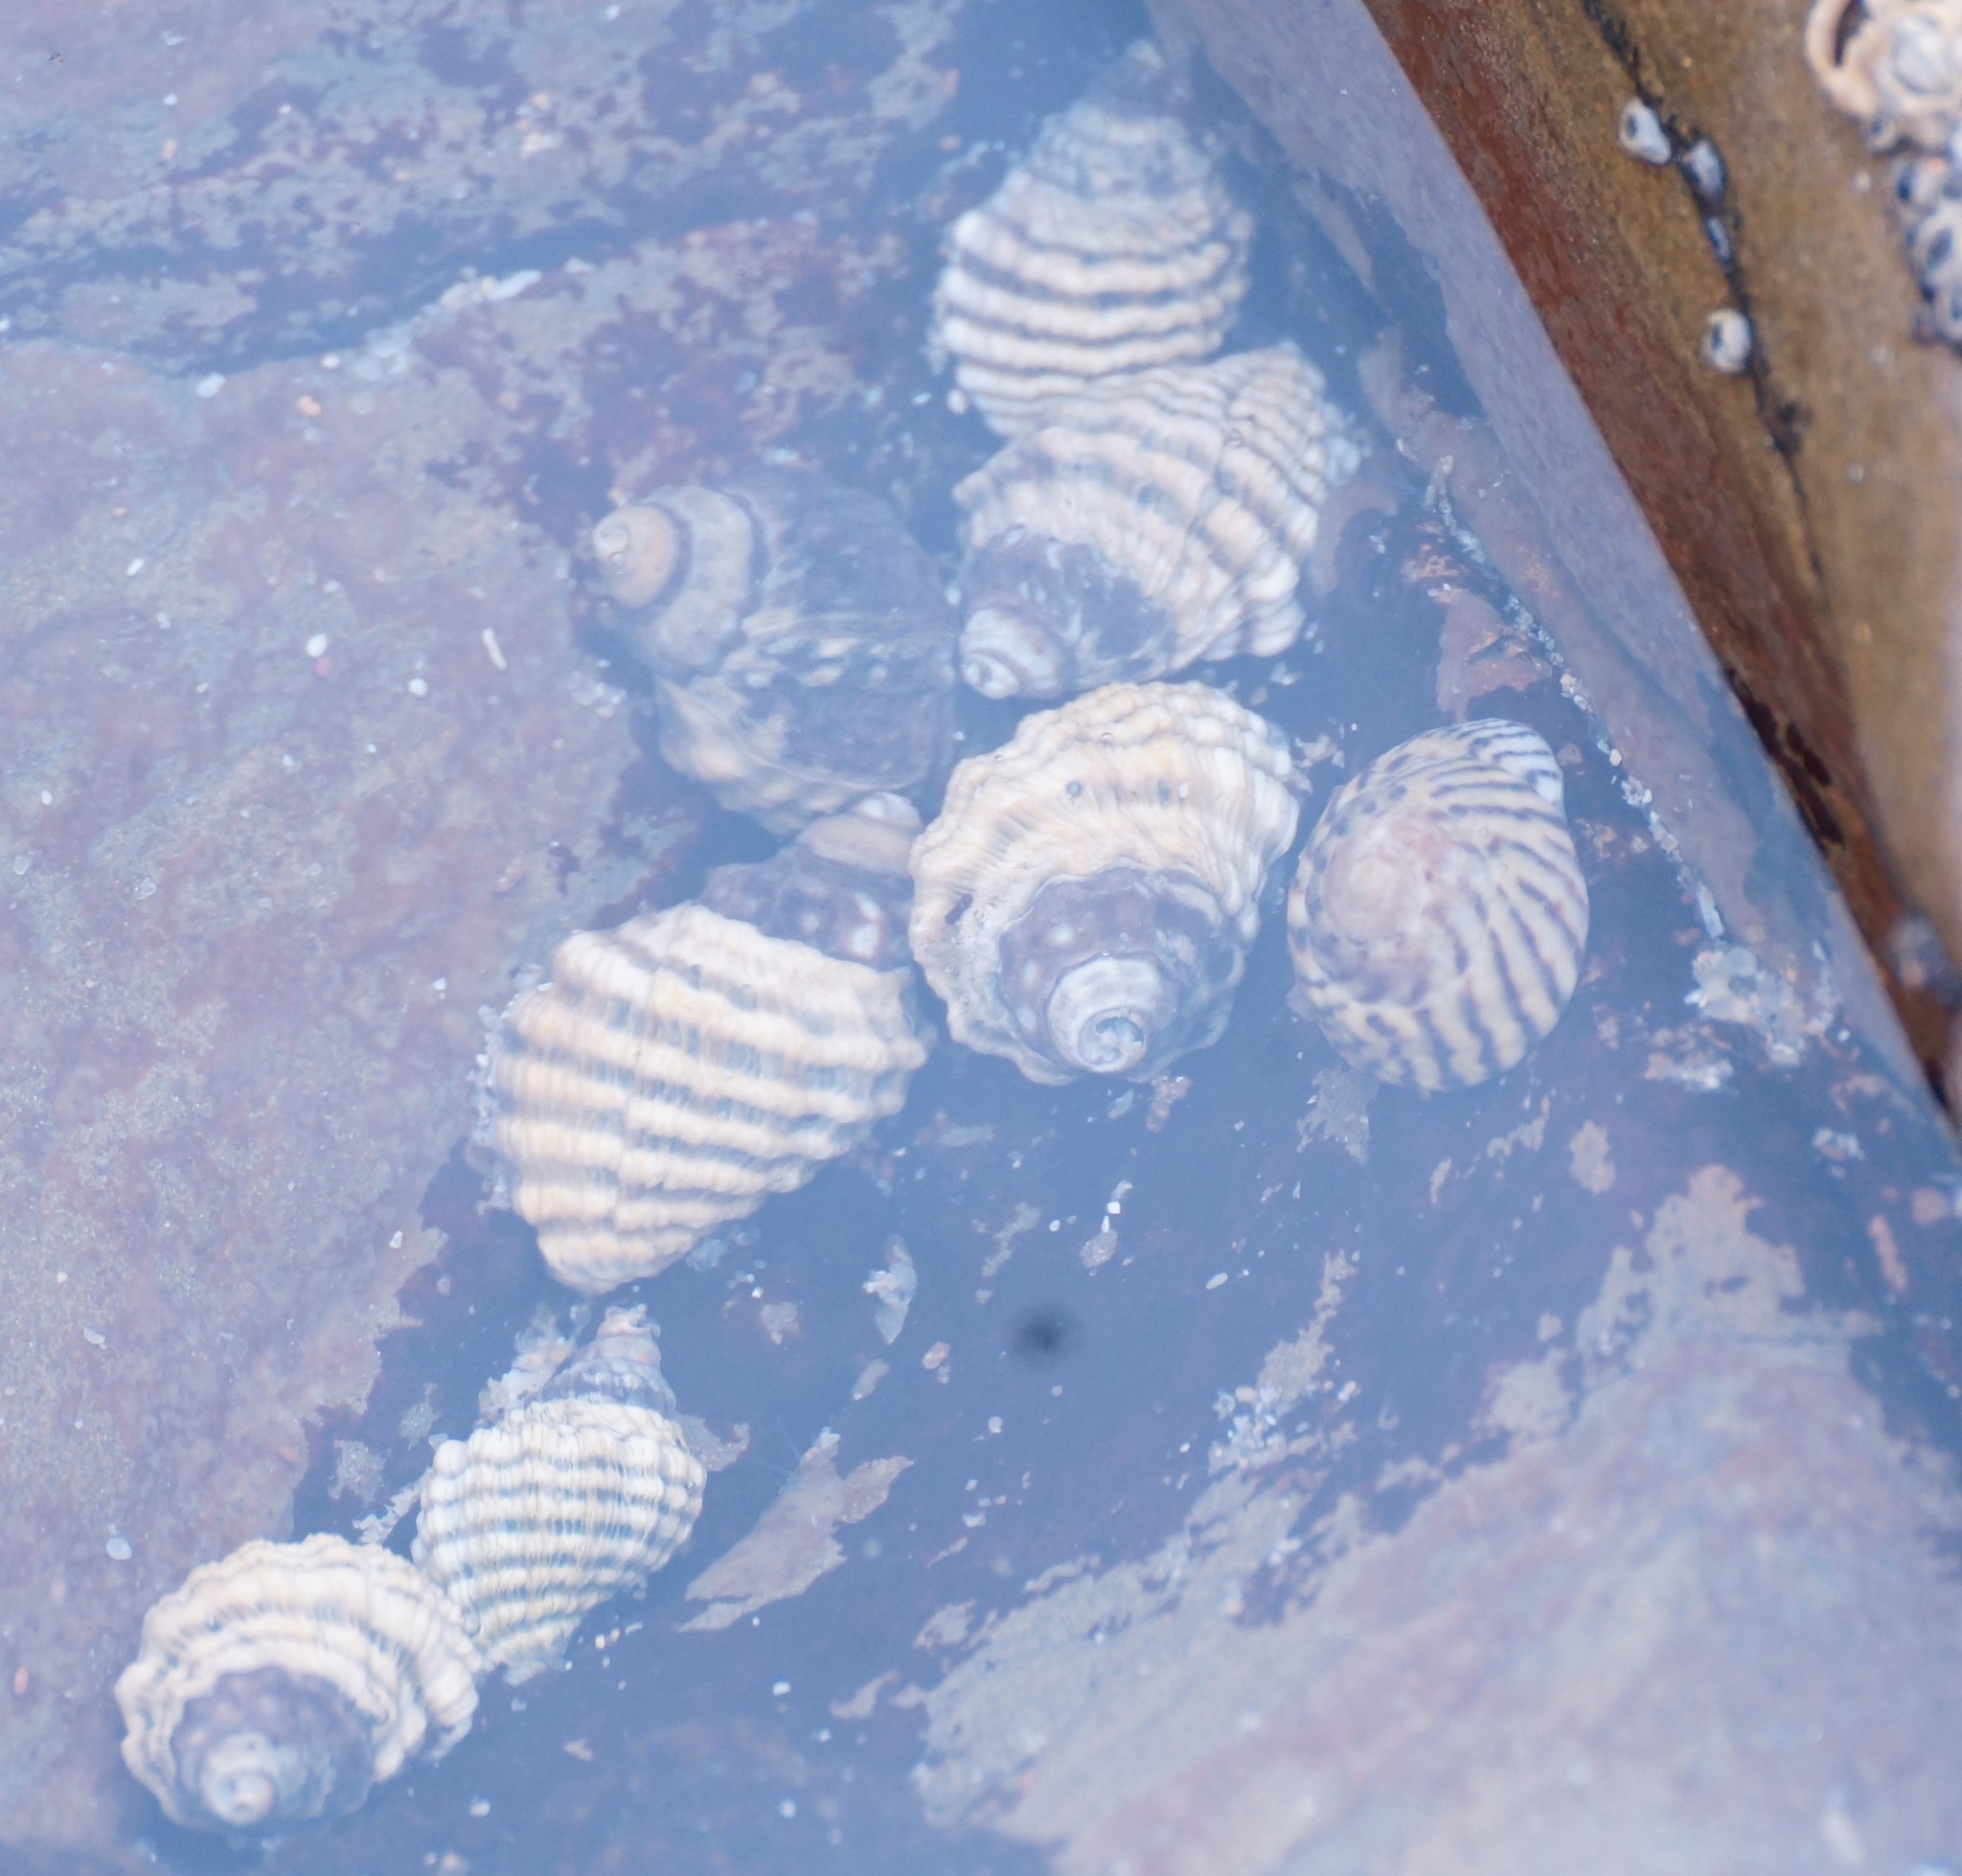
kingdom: Animalia
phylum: Mollusca
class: Gastropoda
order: Neogastropoda
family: Muricidae
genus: Bedeva
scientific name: Bedeva vinosa
